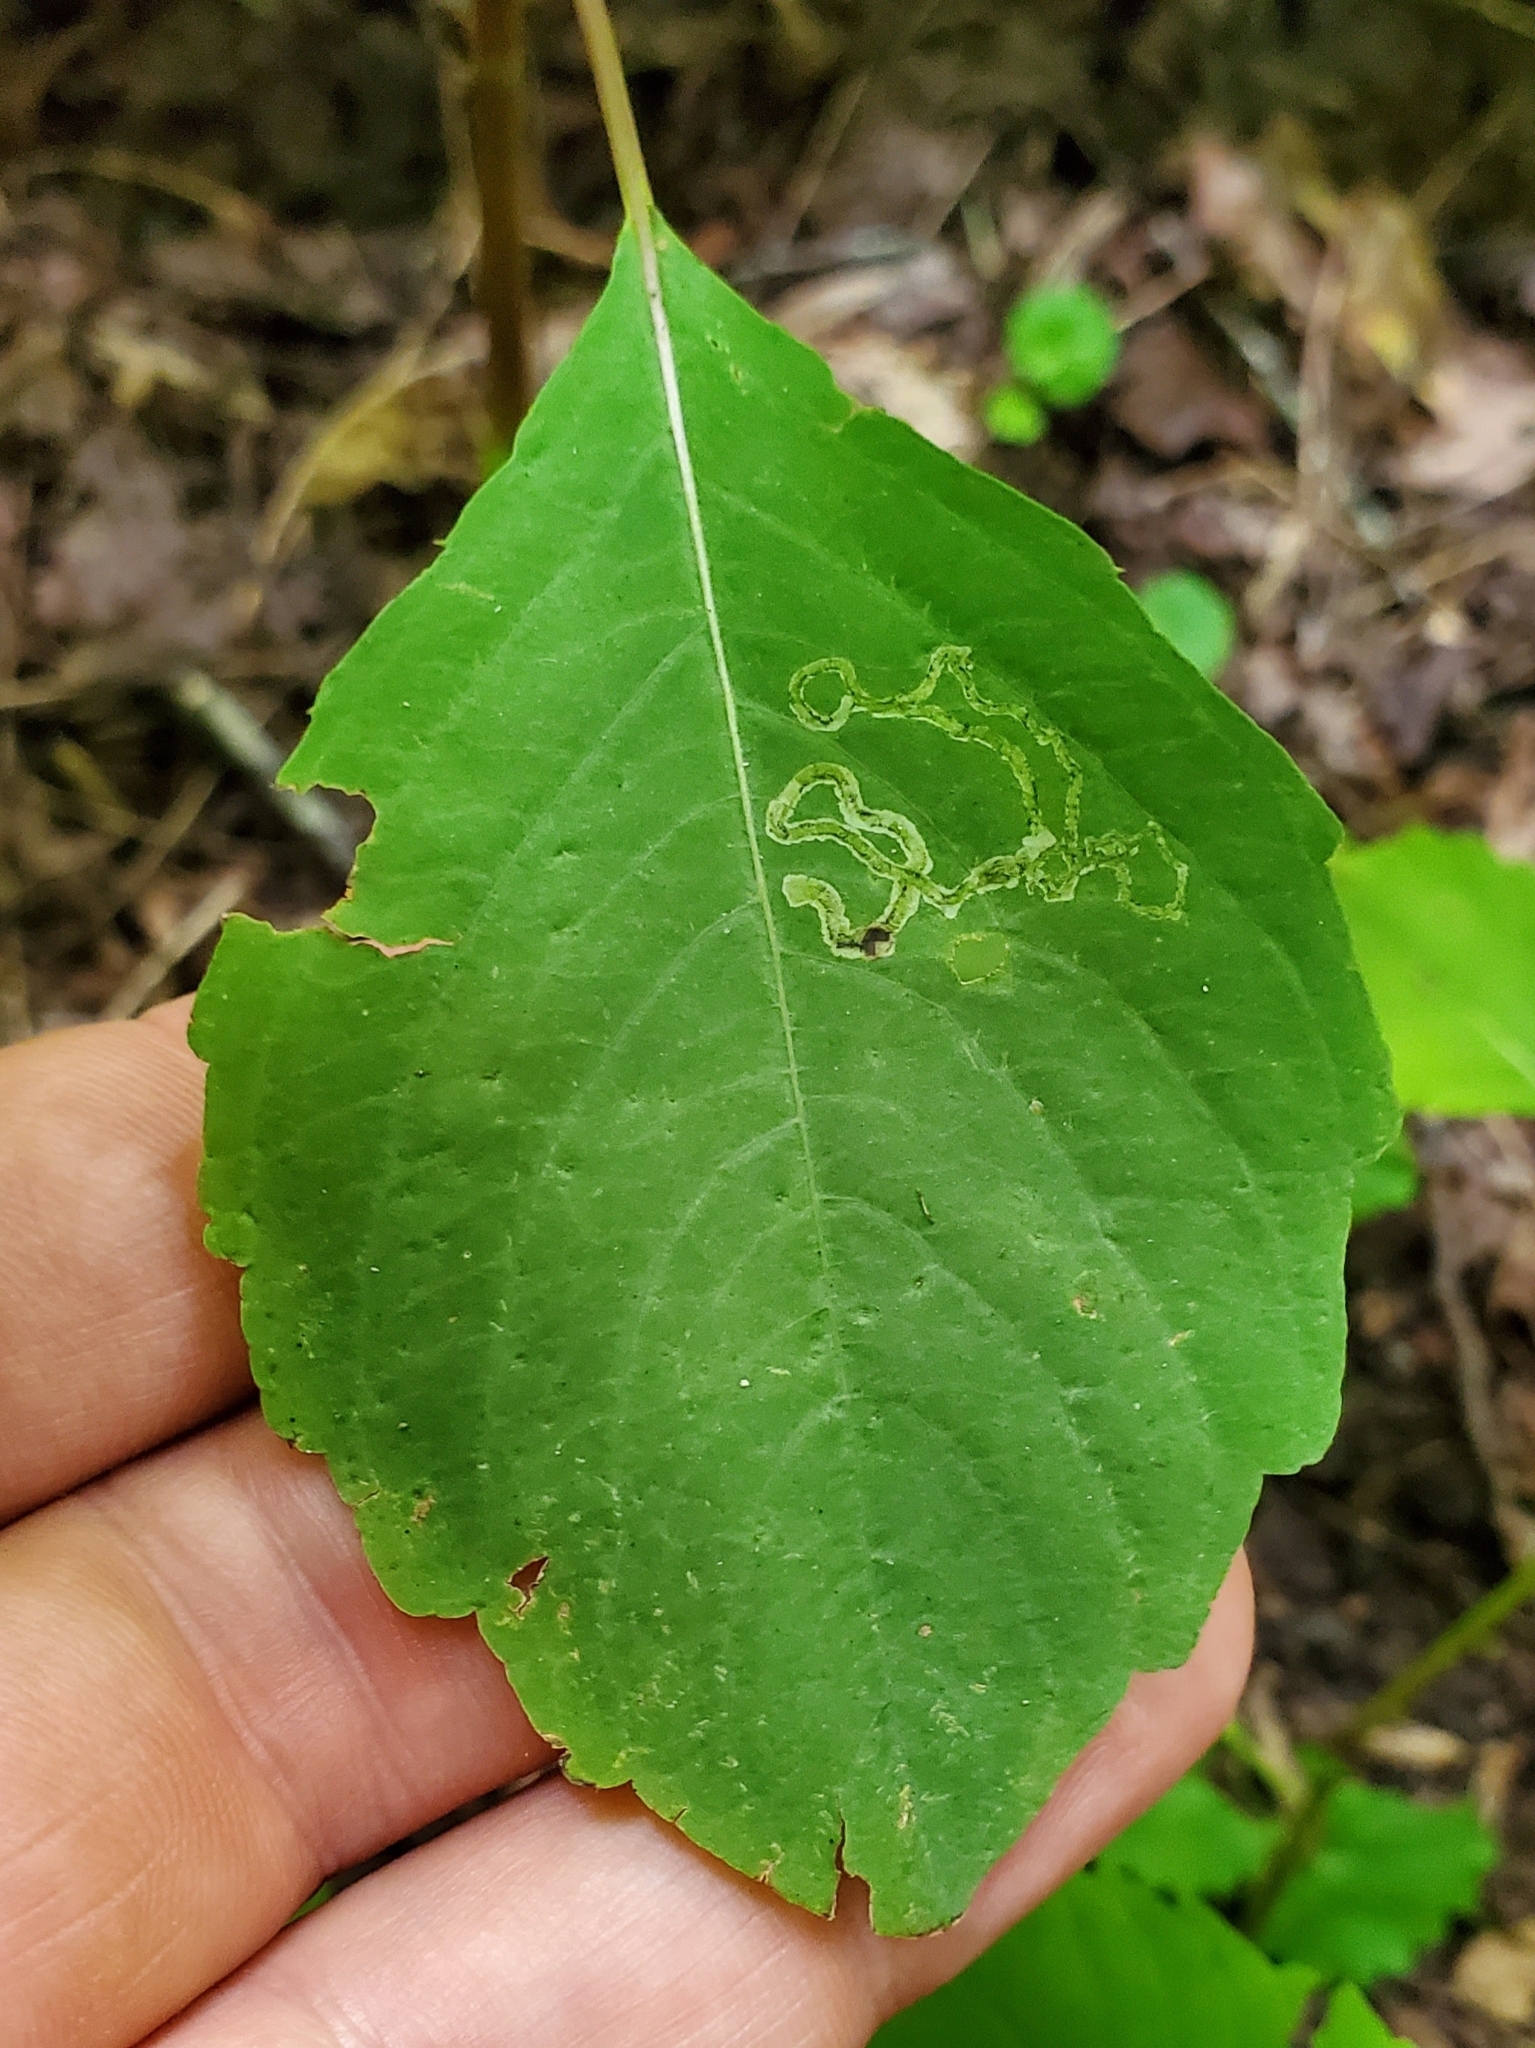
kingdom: Animalia
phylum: Arthropoda
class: Insecta
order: Diptera
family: Agromyzidae
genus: Phytoliriomyza
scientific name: Phytoliriomyza melampyga
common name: Jewelweed leaf-miner fly
